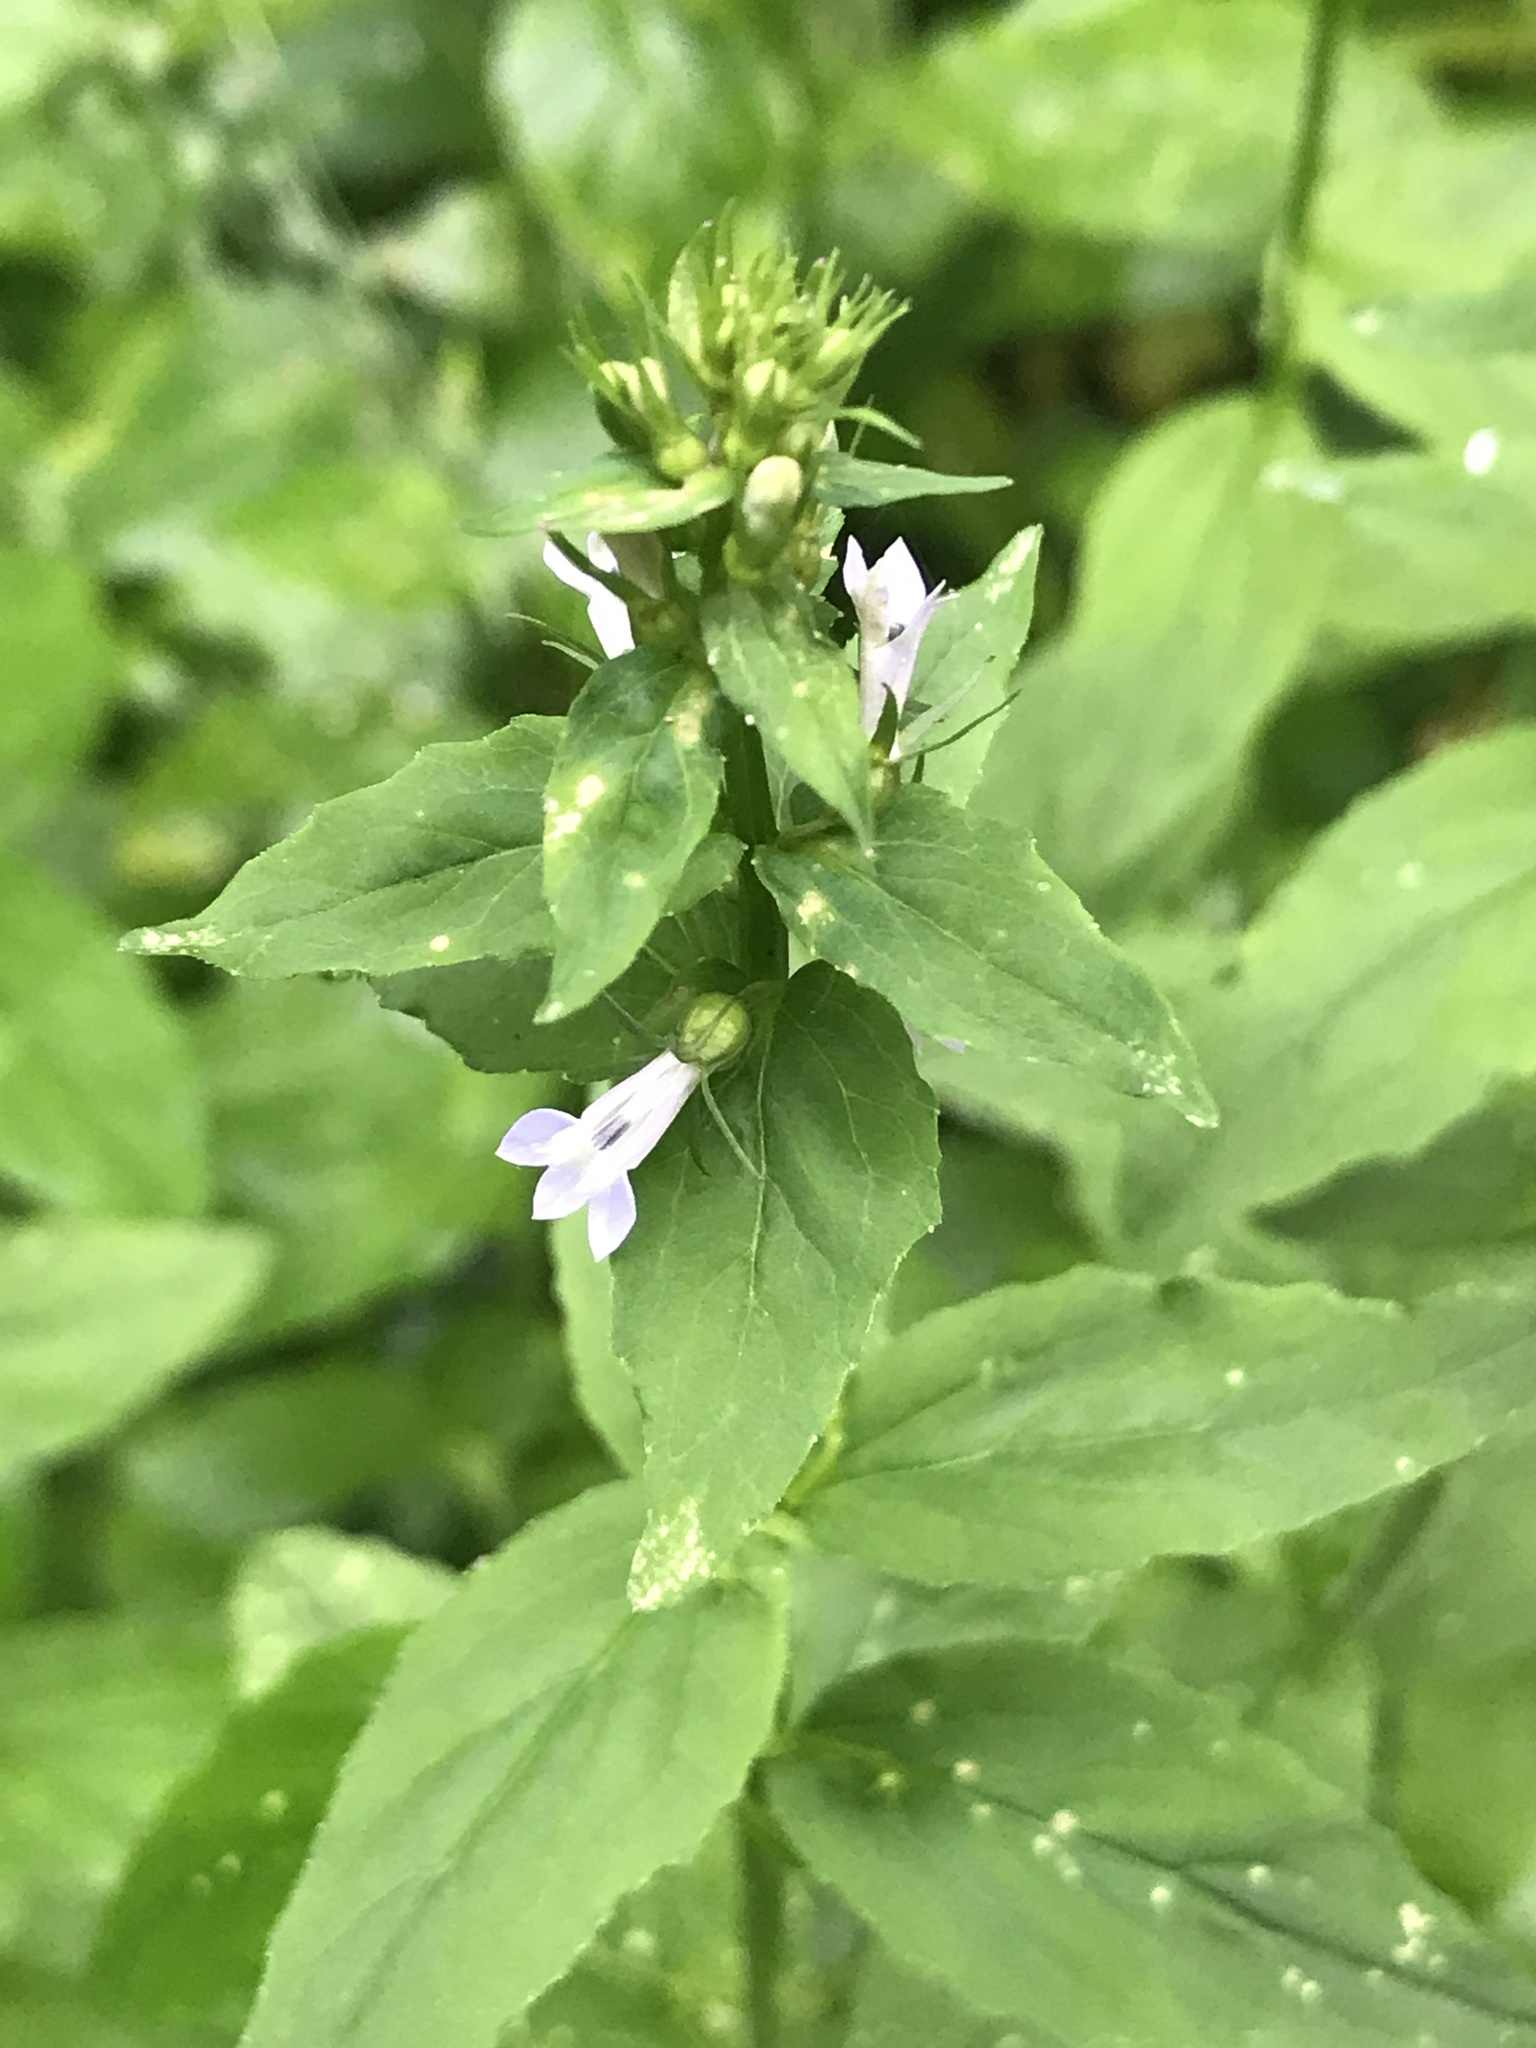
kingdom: Plantae
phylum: Tracheophyta
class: Magnoliopsida
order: Asterales
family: Campanulaceae
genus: Lobelia
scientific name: Lobelia inflata
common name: Indian tobacco
